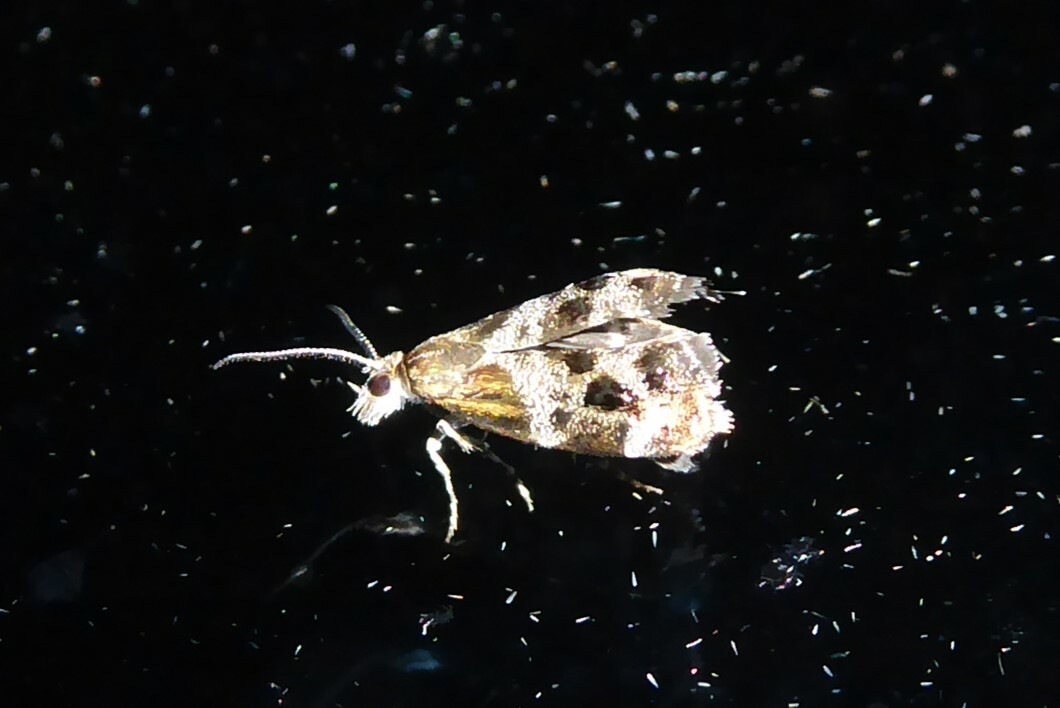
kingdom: Animalia
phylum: Arthropoda
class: Insecta
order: Lepidoptera
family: Choreutidae
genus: Tebenna
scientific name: Tebenna micalis
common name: Vagrant twitcher
